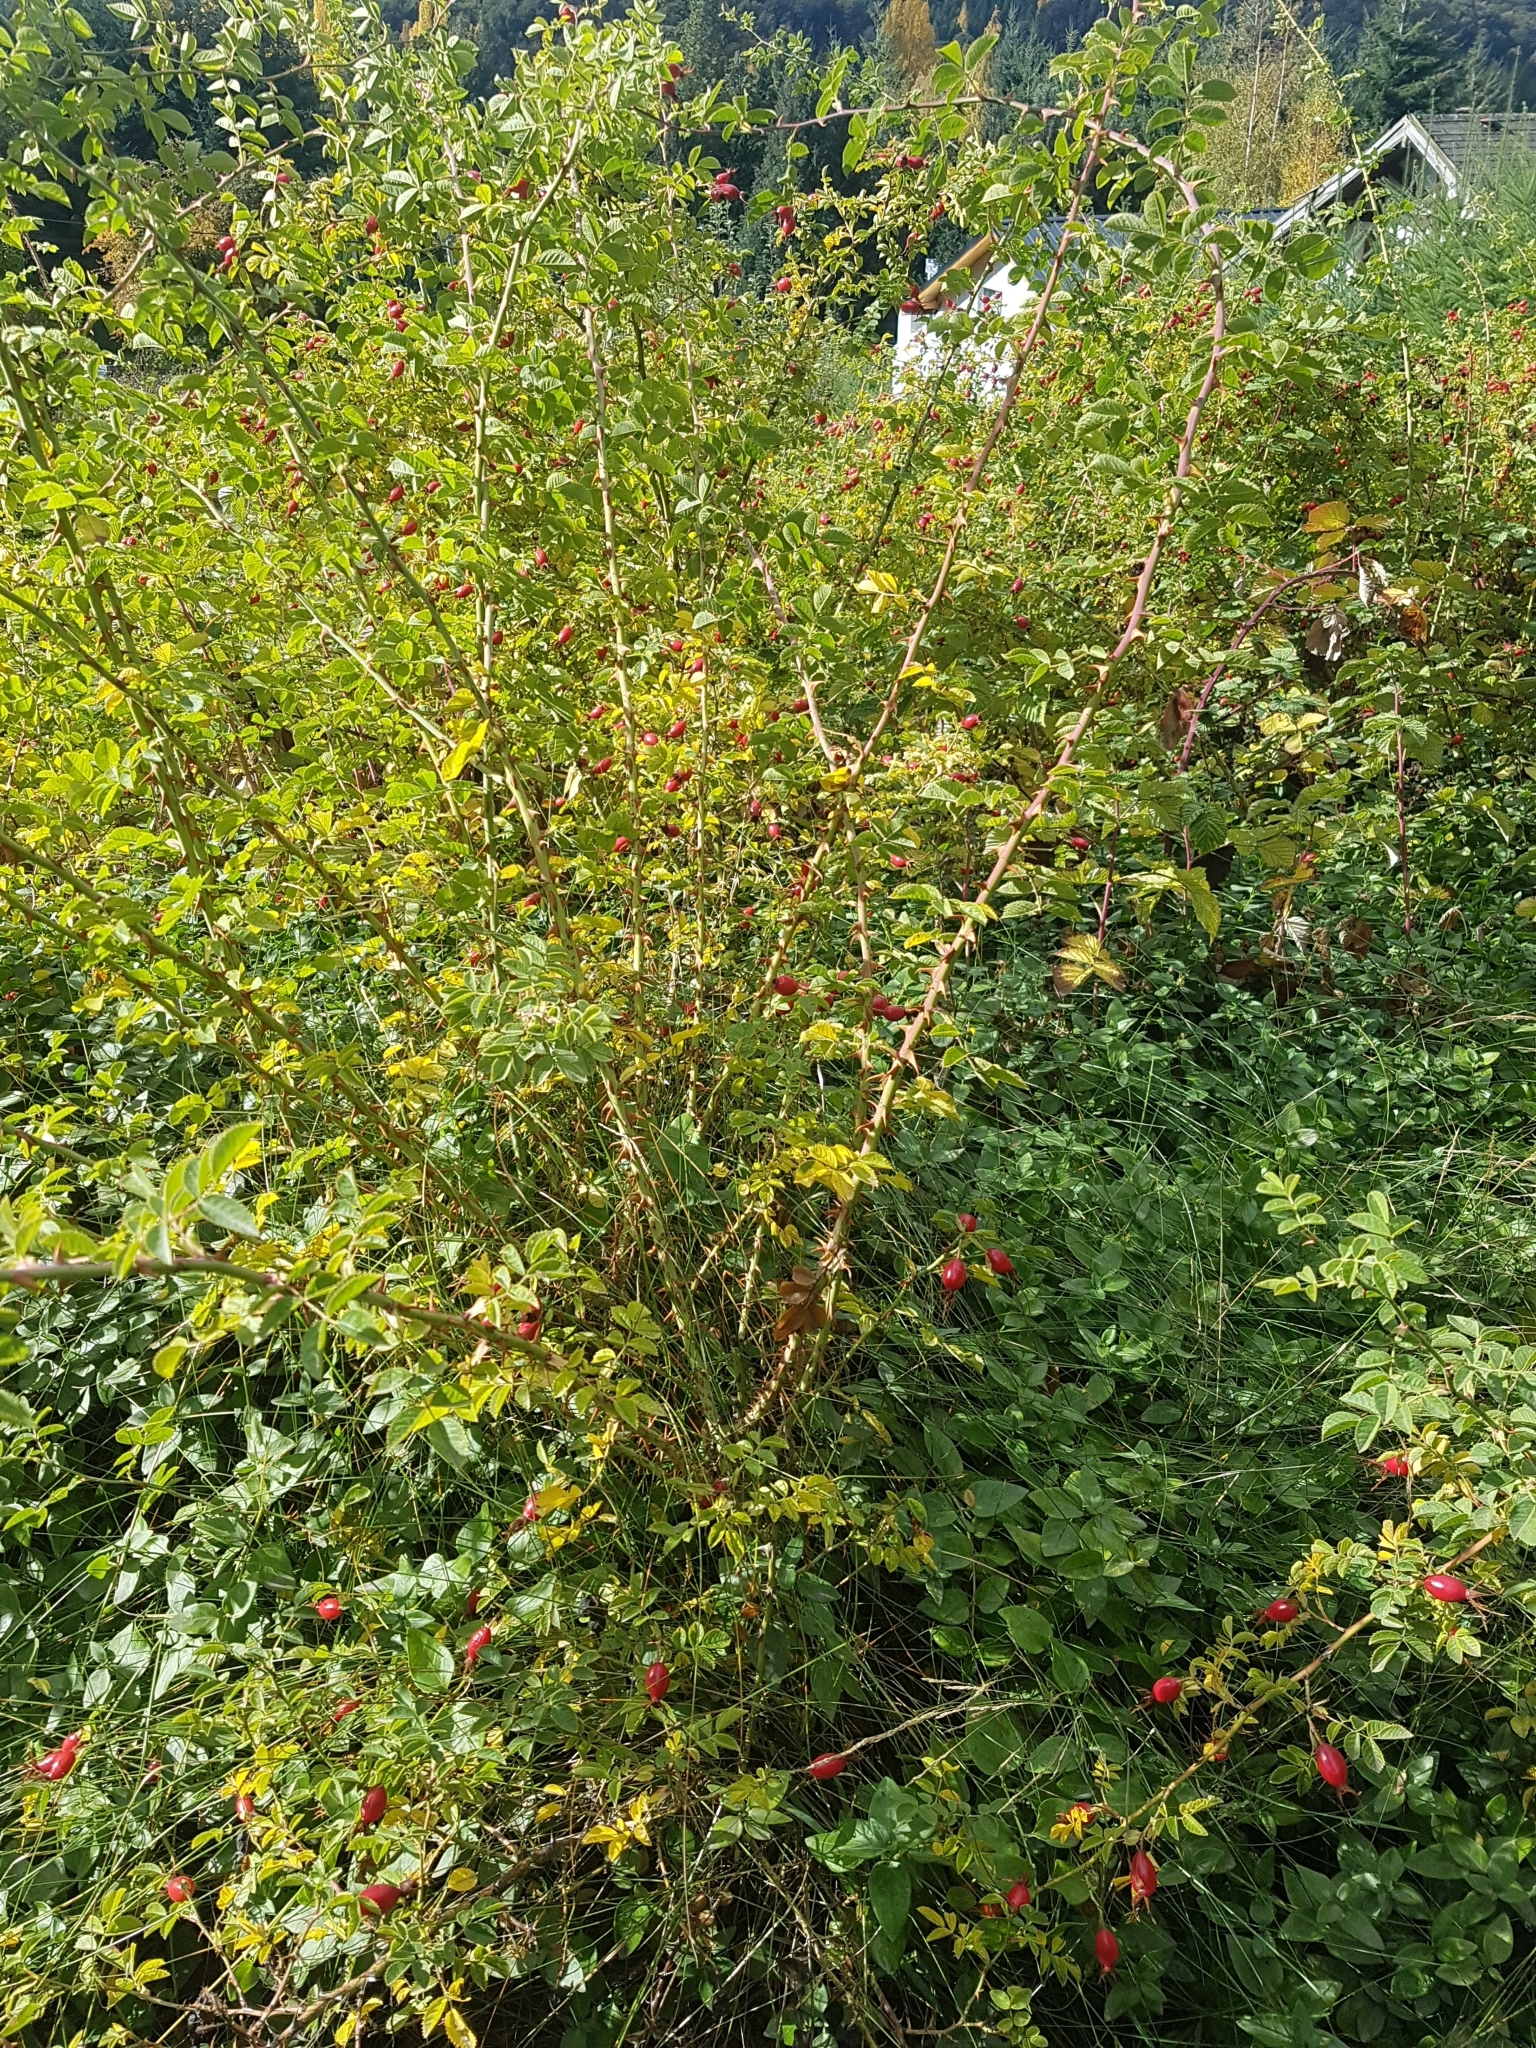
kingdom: Plantae
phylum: Tracheophyta
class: Magnoliopsida
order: Rosales
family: Rosaceae
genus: Rosa
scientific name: Rosa rubiginosa
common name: Sweet-briar
